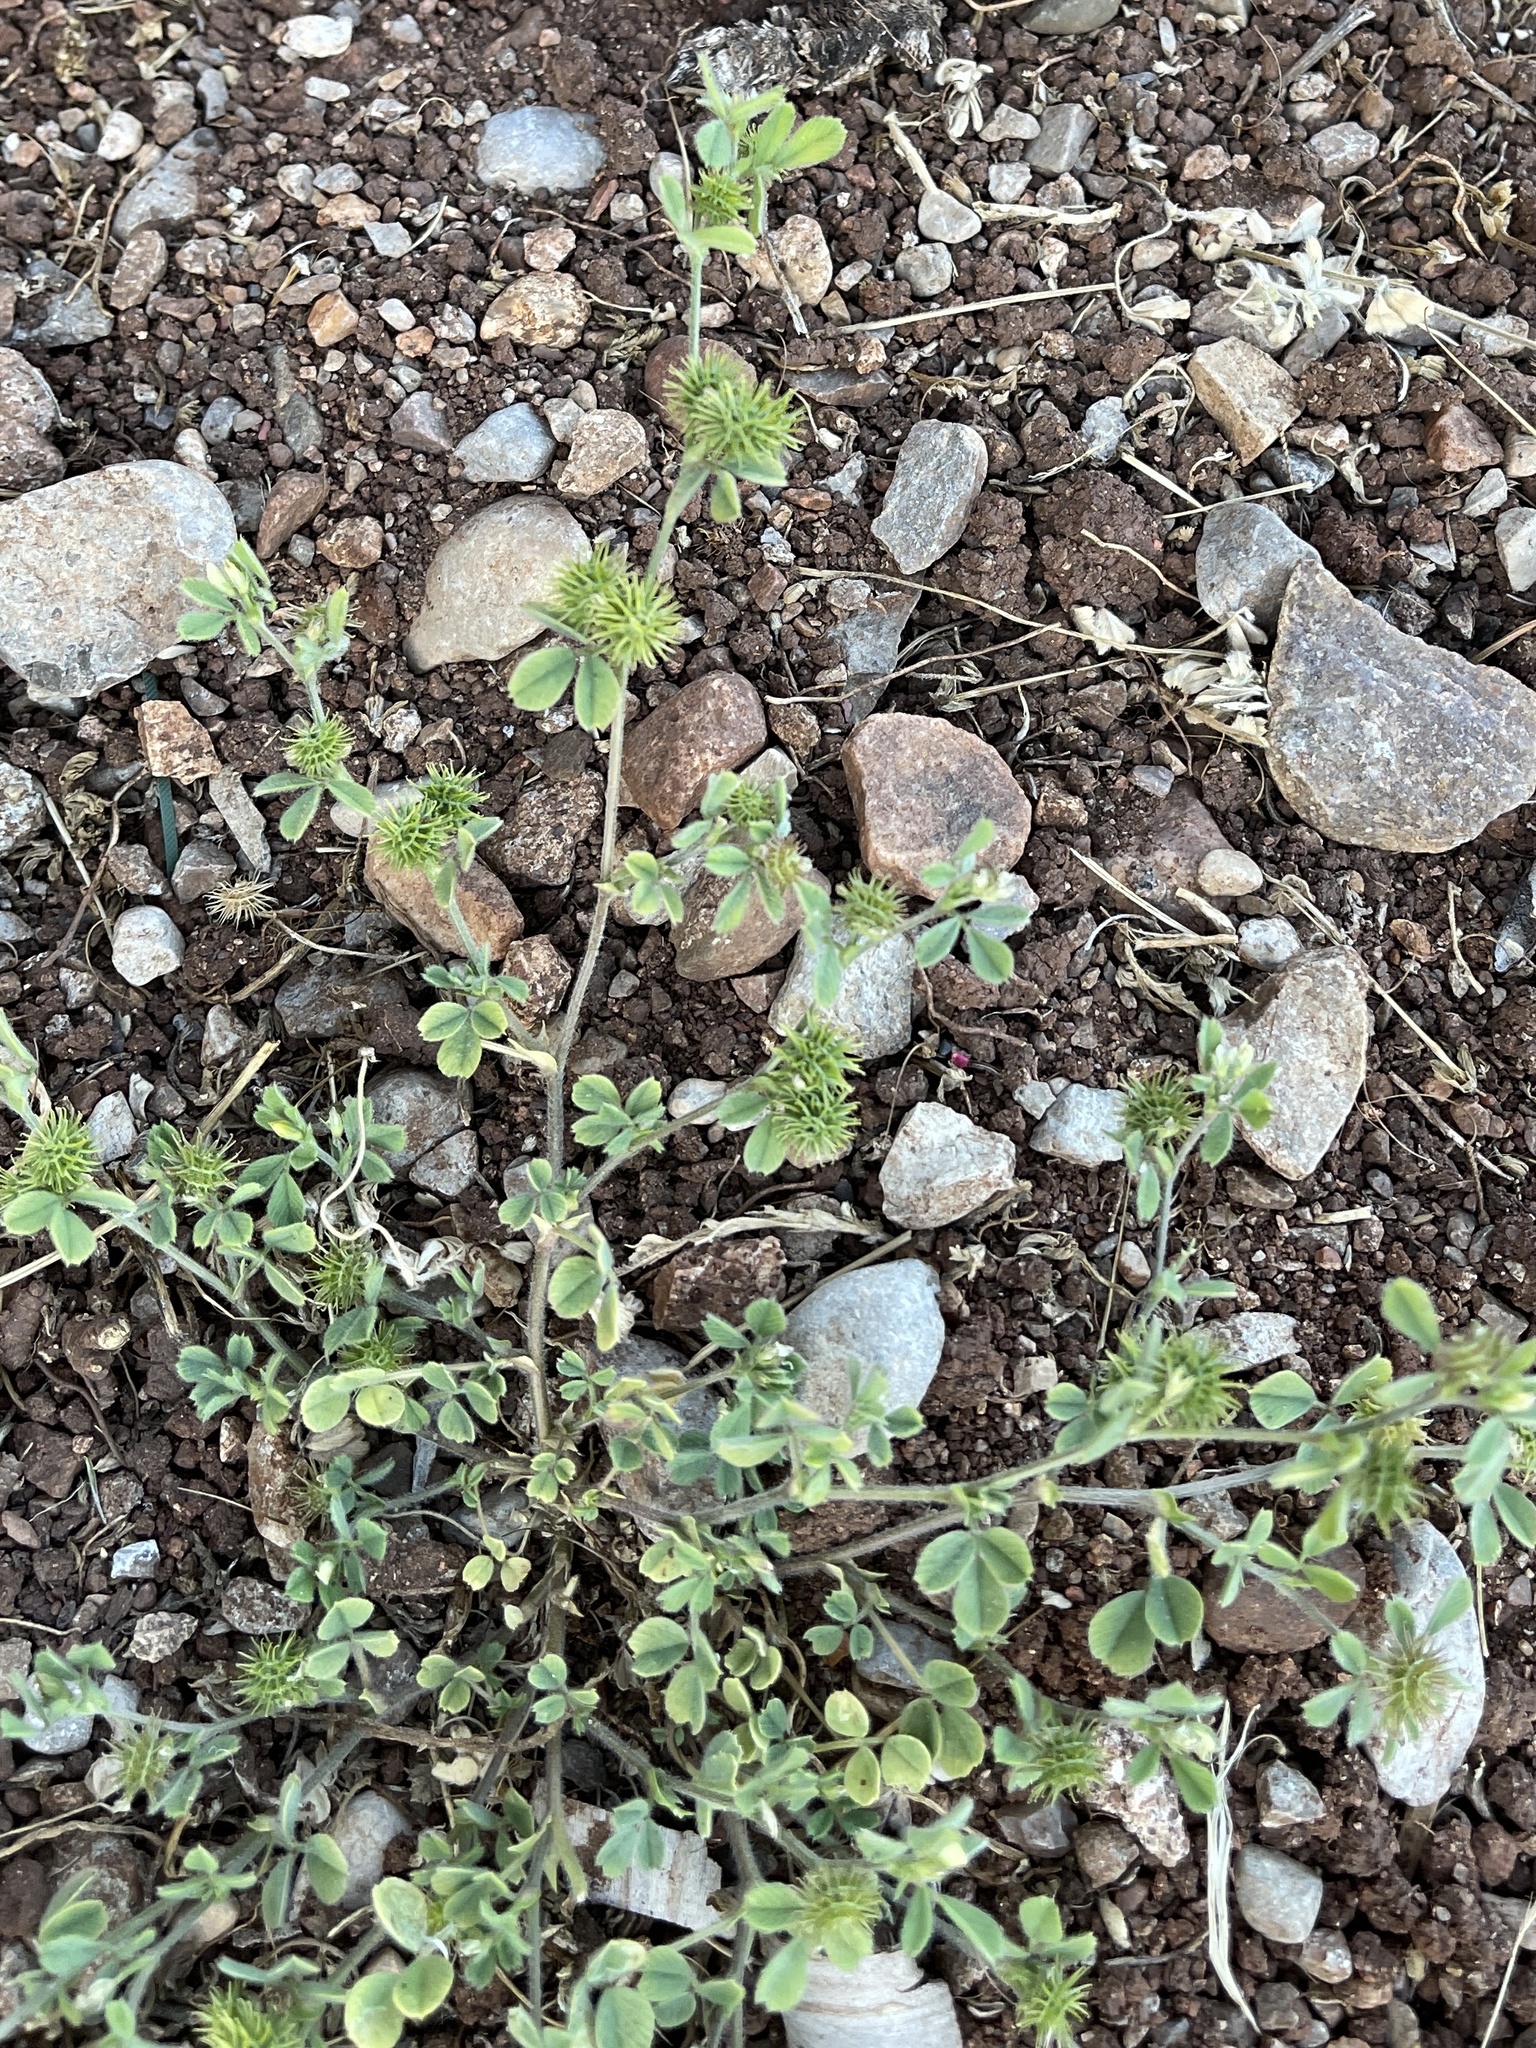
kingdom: Plantae
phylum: Tracheophyta
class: Magnoliopsida
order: Fabales
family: Fabaceae
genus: Medicago
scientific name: Medicago minima
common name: Little bur-clover
